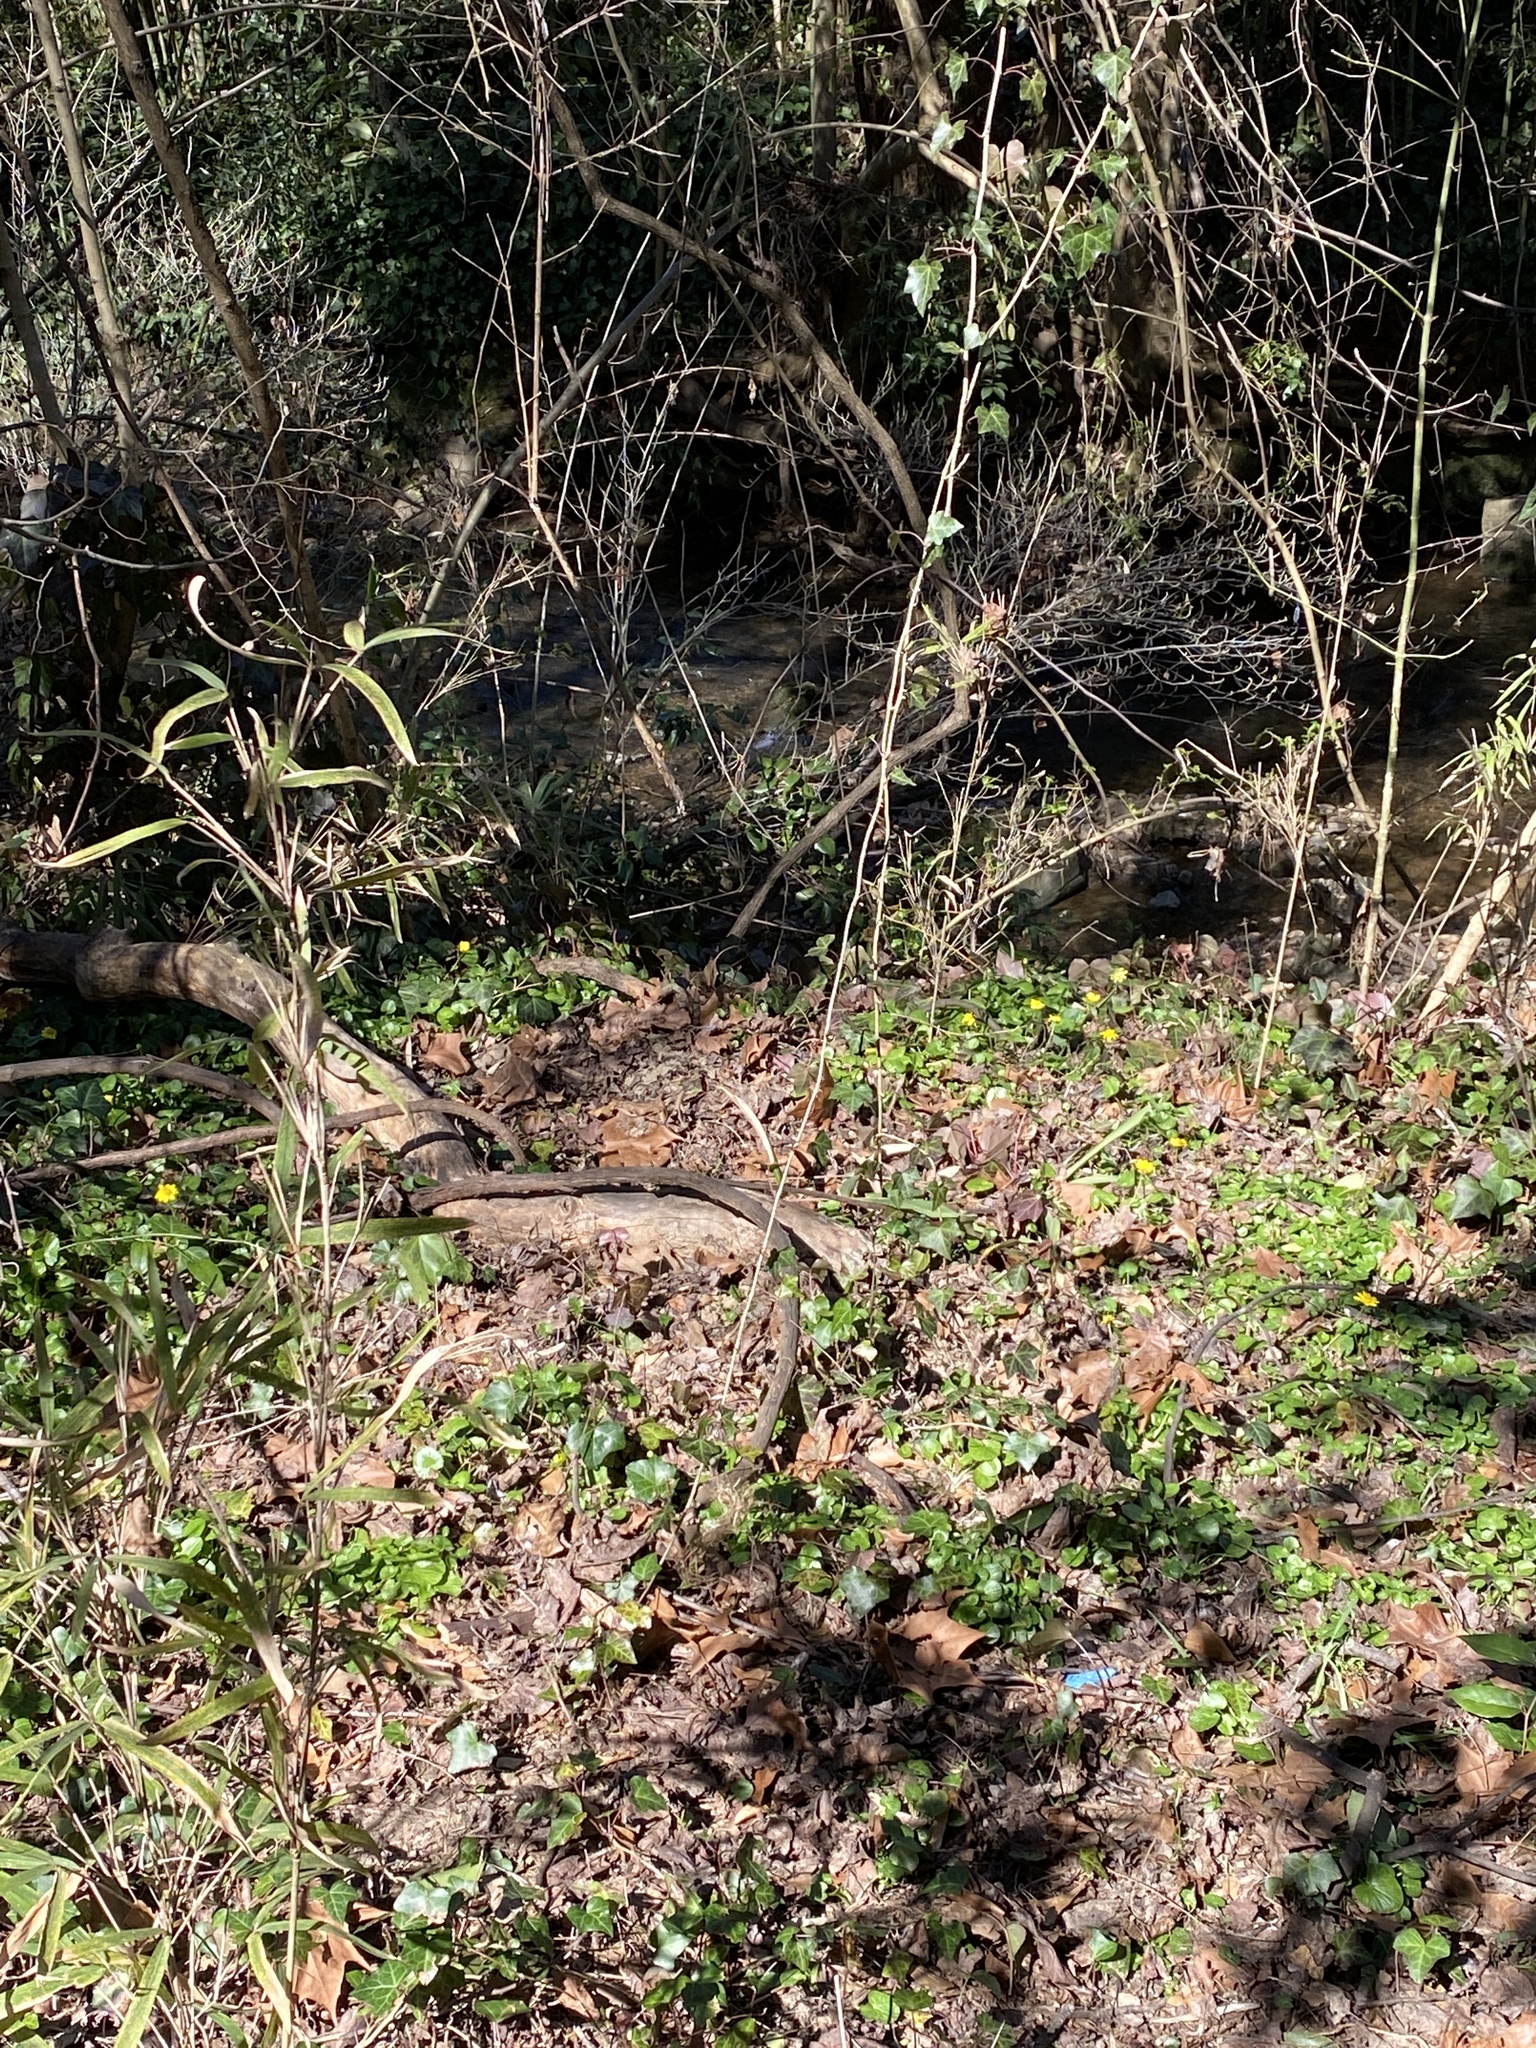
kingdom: Plantae
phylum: Tracheophyta
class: Magnoliopsida
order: Ranunculales
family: Ranunculaceae
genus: Ficaria
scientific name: Ficaria verna
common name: Lesser celandine
